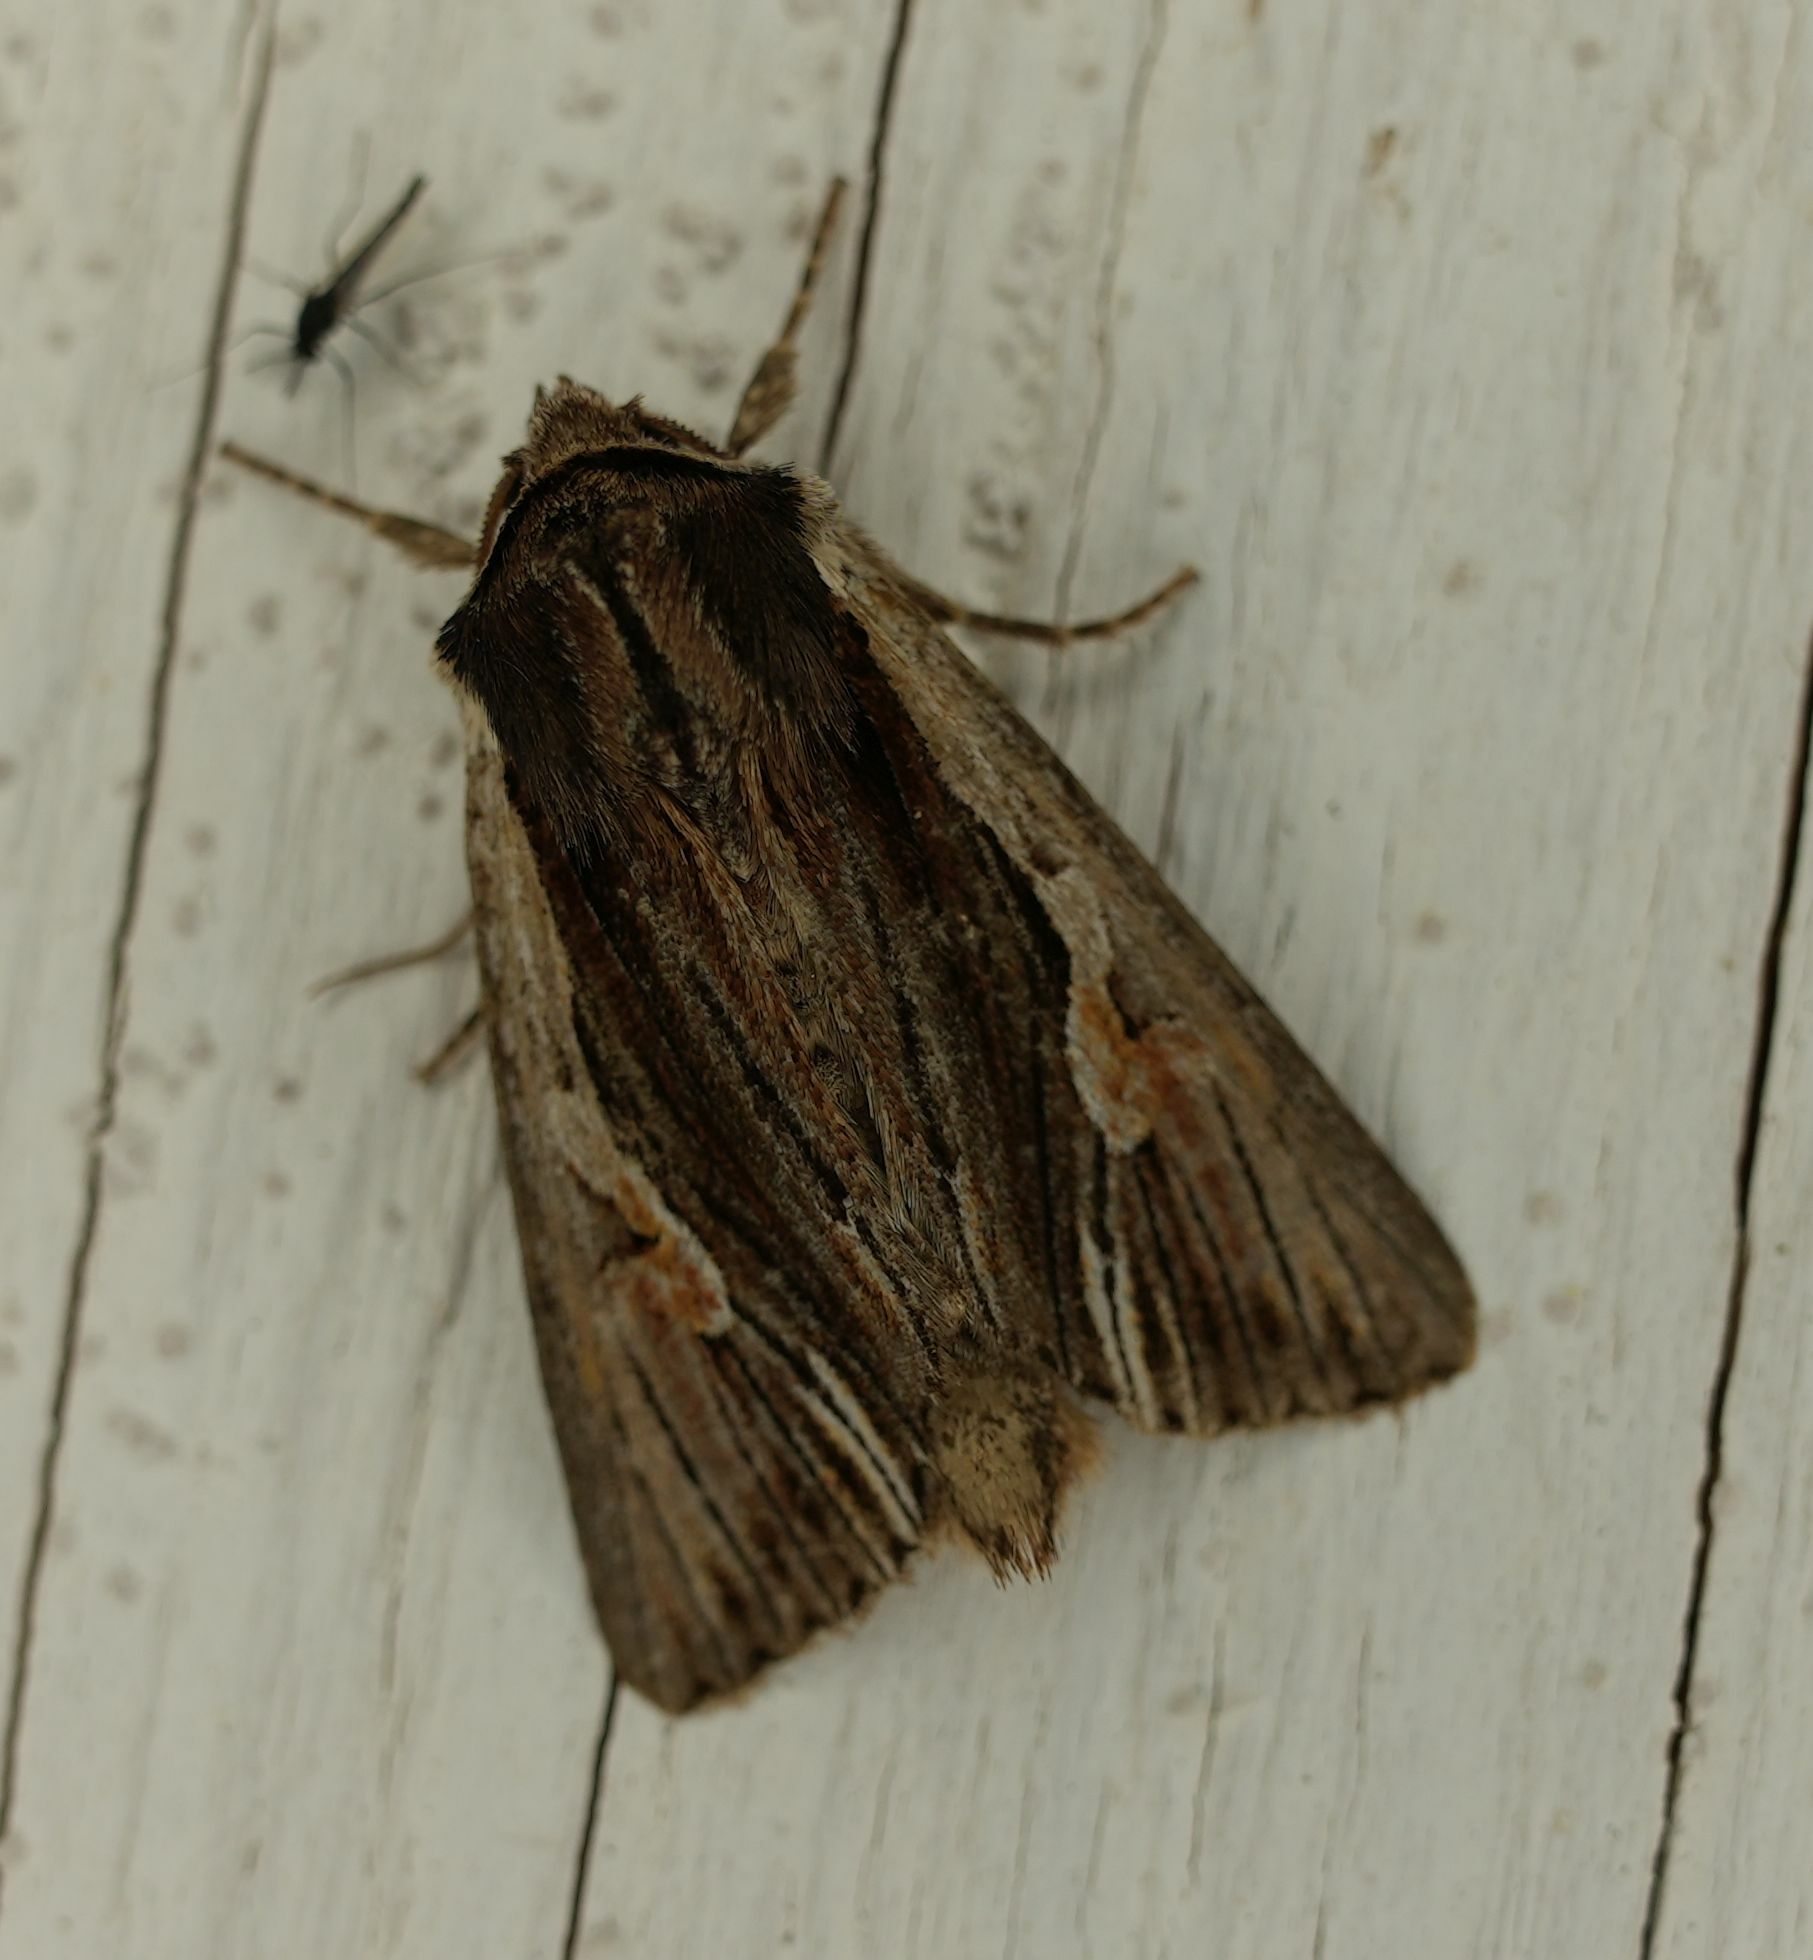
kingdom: Animalia
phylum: Arthropoda
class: Insecta
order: Lepidoptera
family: Noctuidae
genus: Achatia
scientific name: Achatia evicta
